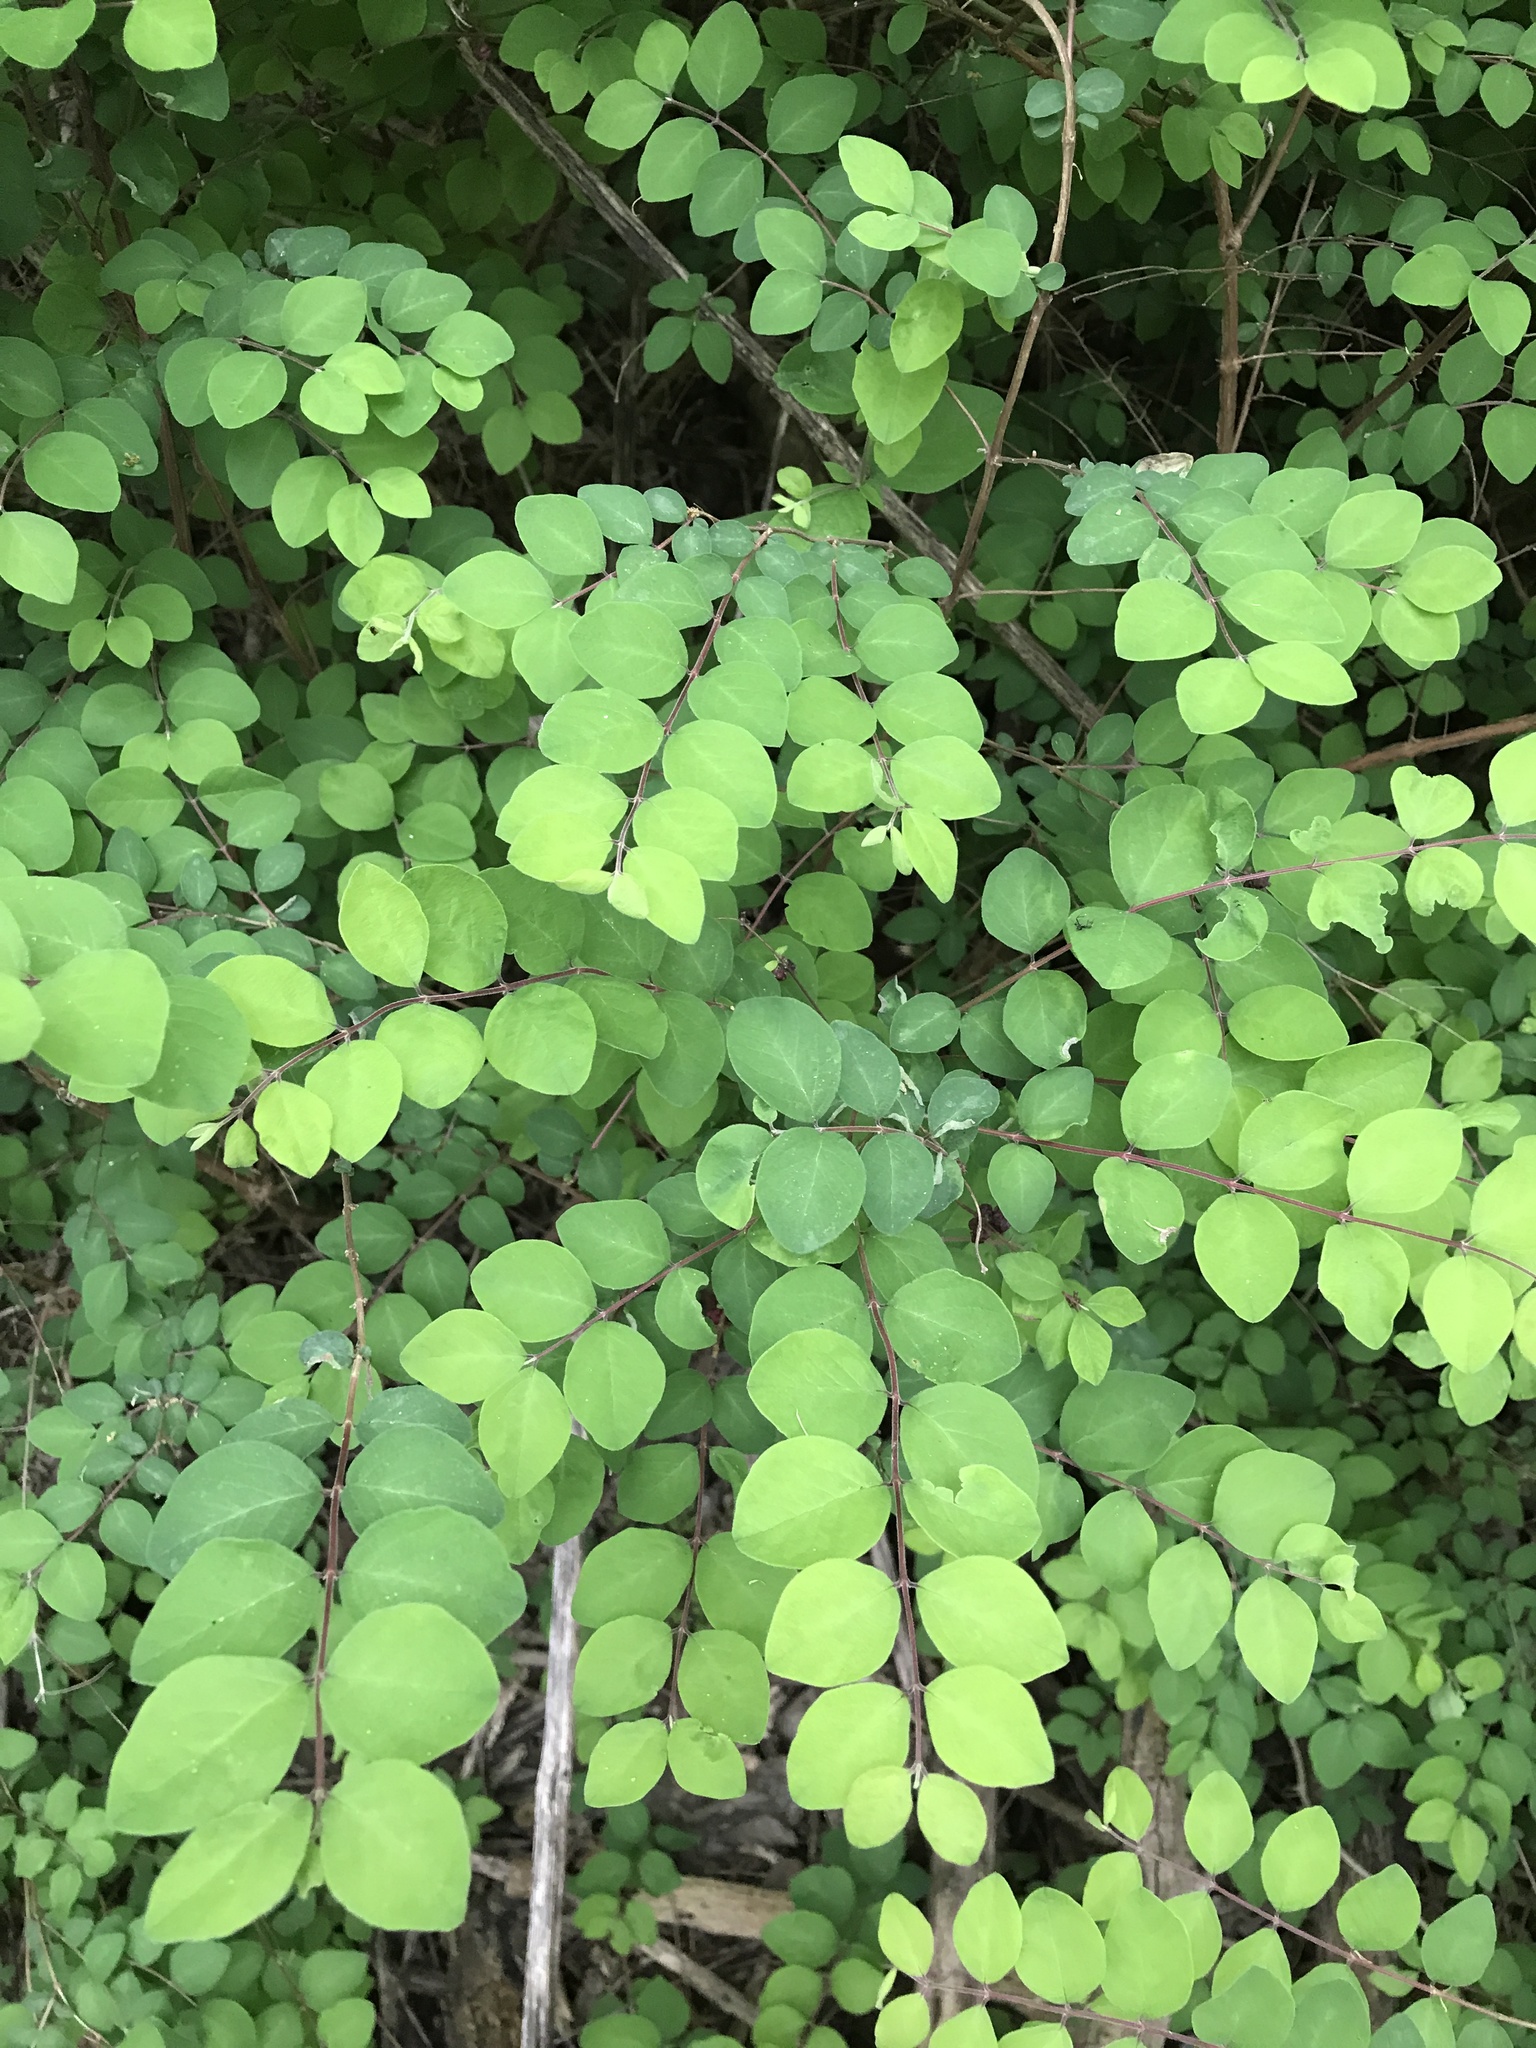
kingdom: Plantae
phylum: Tracheophyta
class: Magnoliopsida
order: Dipsacales
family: Caprifoliaceae
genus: Symphoricarpos
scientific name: Symphoricarpos orbiculatus
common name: Coralberry
